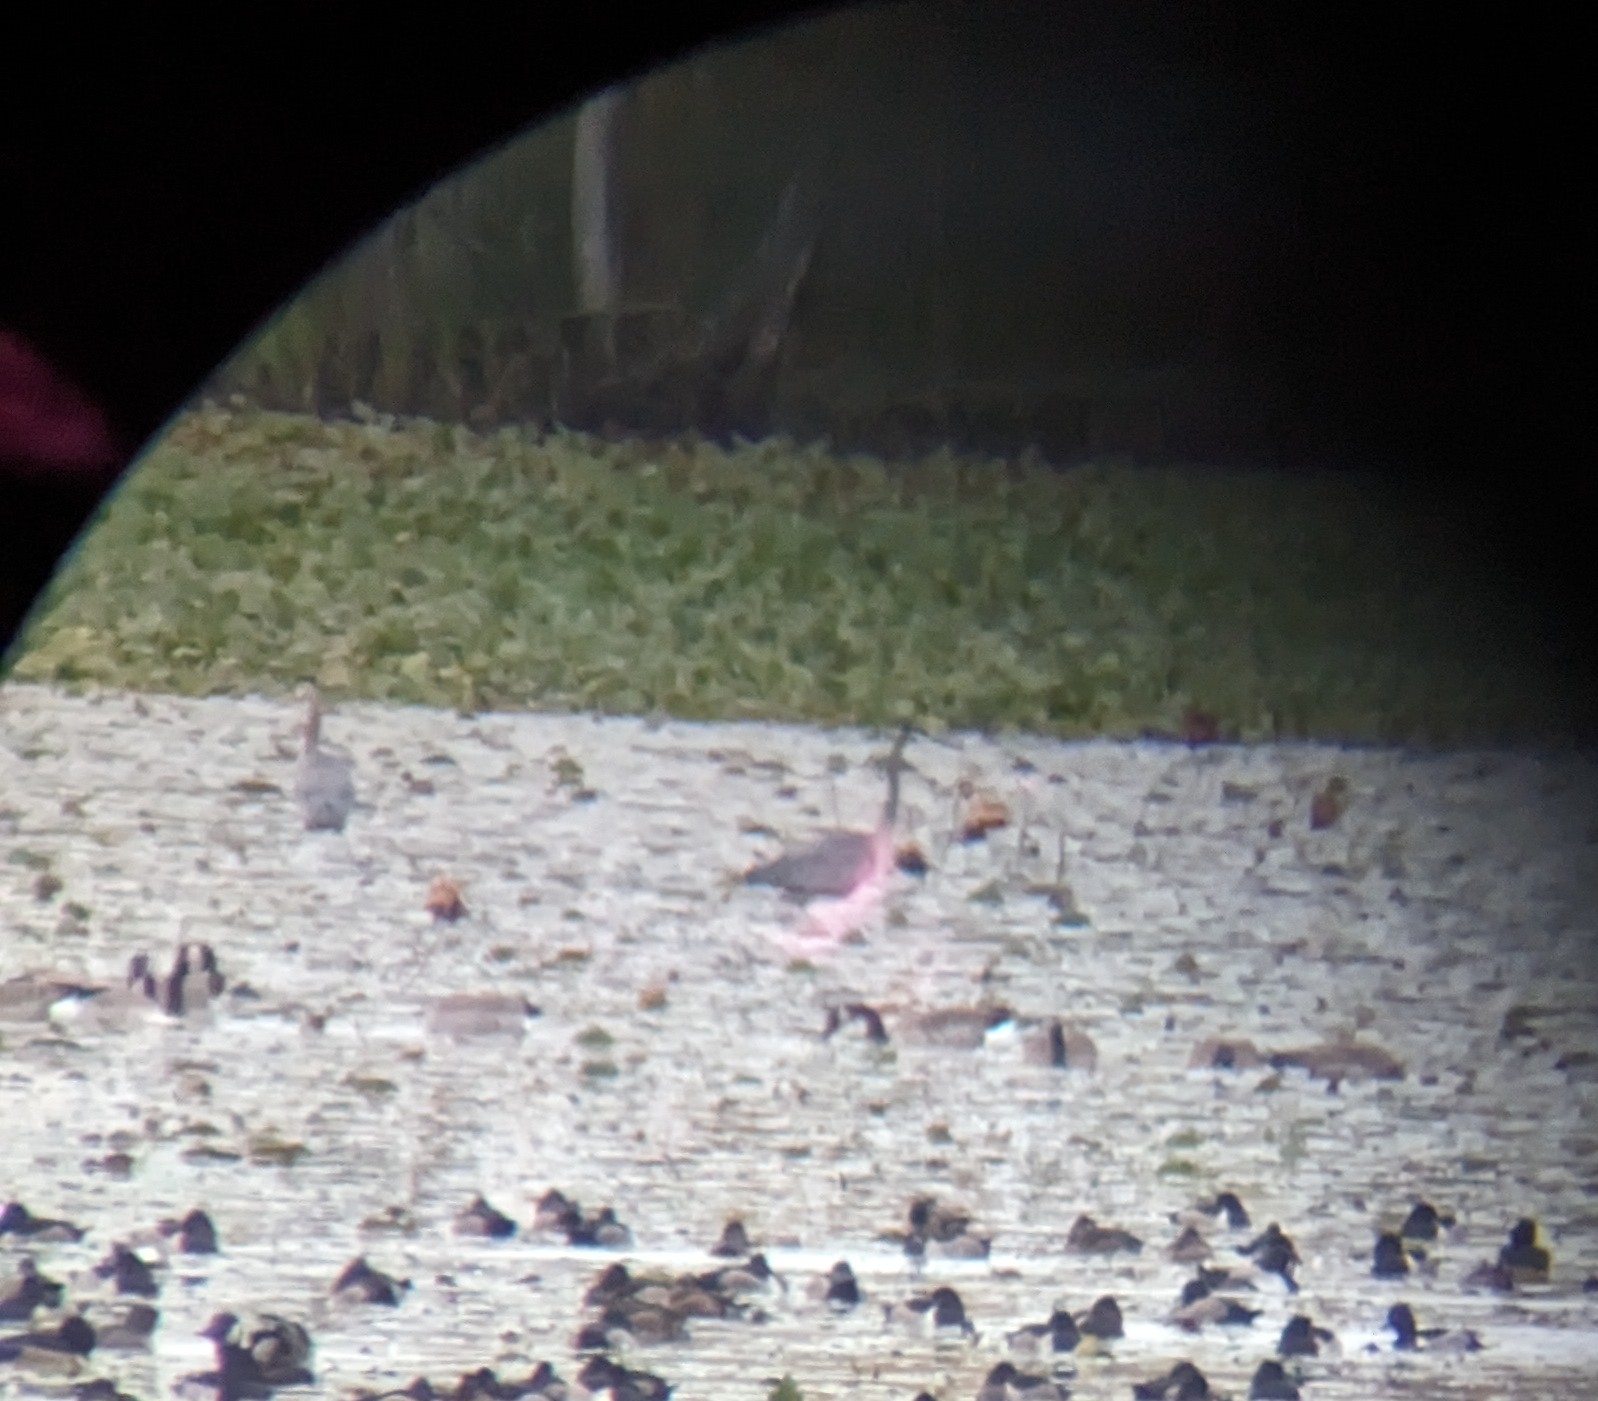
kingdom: Animalia
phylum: Chordata
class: Aves
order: Pelecaniformes
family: Ardeidae
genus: Ardea
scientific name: Ardea herodias
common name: Great blue heron
